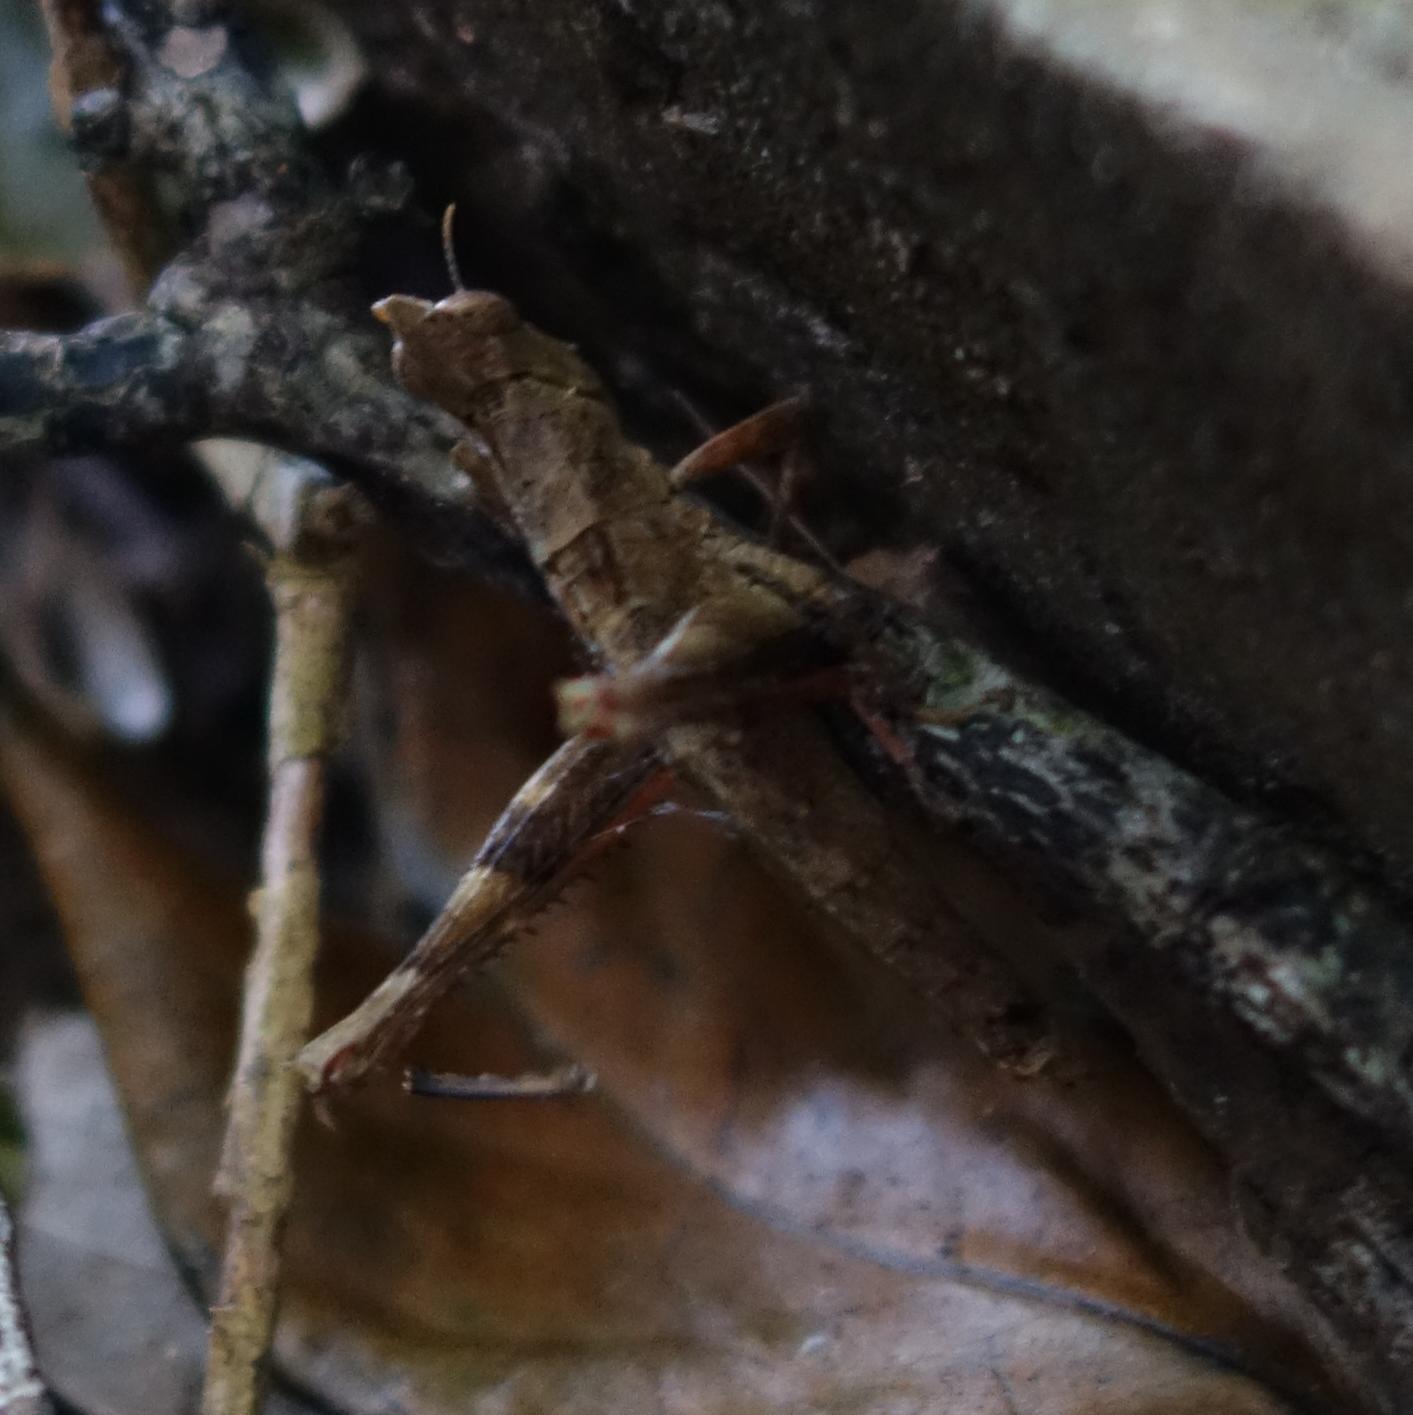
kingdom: Animalia
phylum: Arthropoda
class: Insecta
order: Orthoptera
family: Chorotypidae
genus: Erianthella
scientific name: Erianthella formosana
